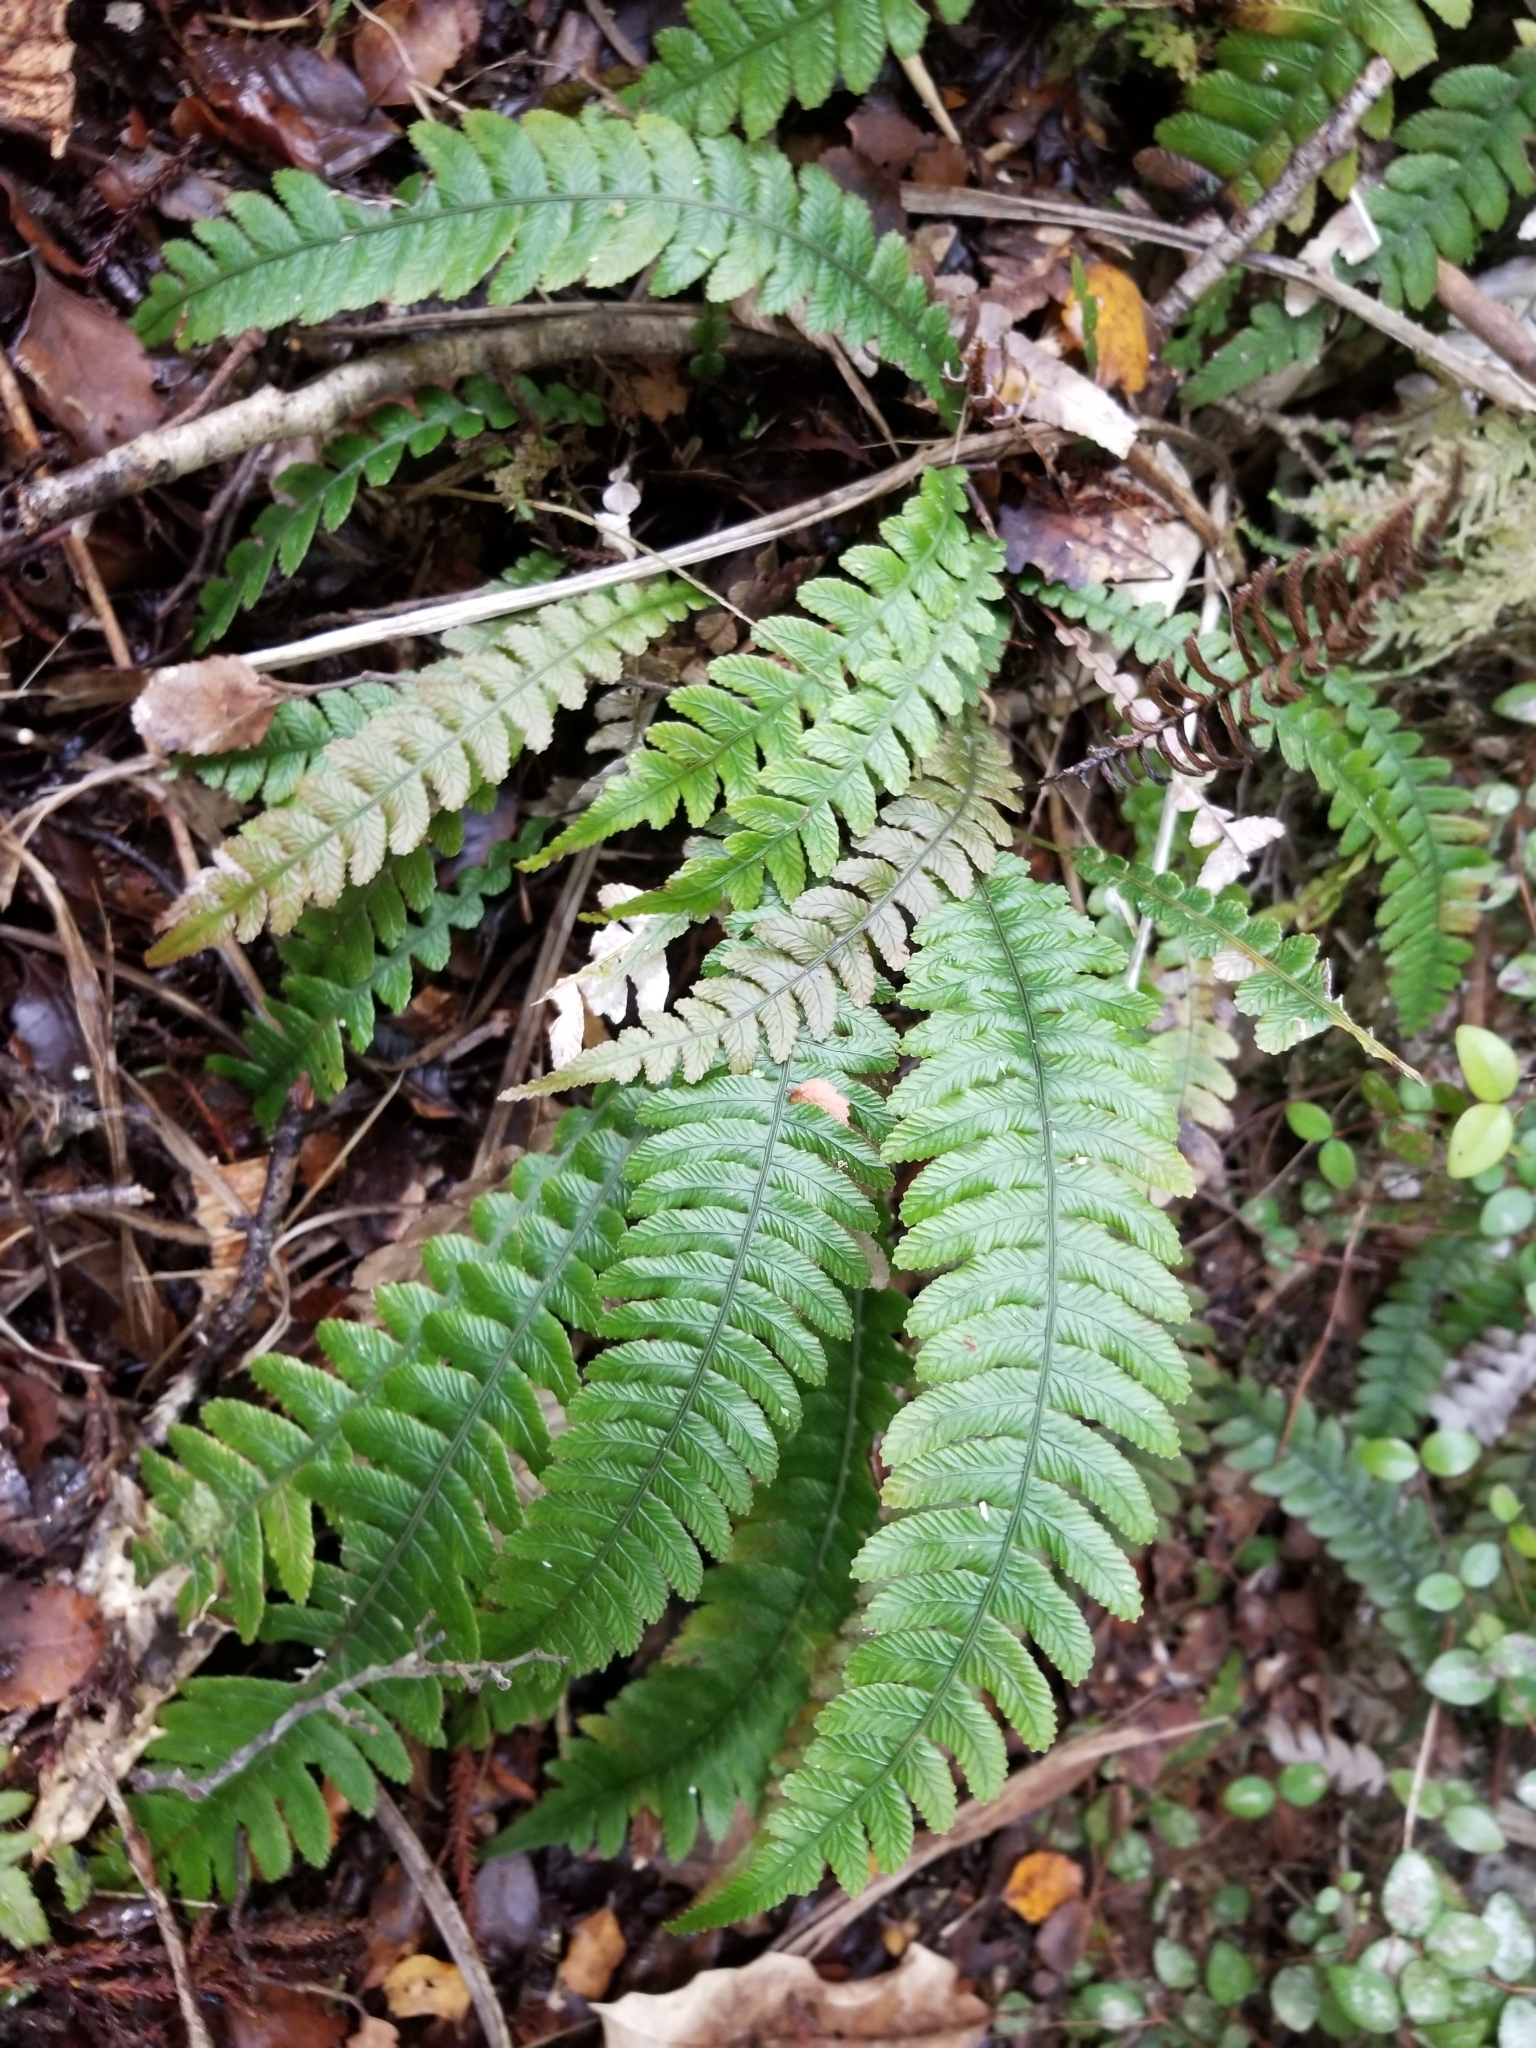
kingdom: Plantae
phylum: Tracheophyta
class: Polypodiopsida
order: Polypodiales
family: Blechnaceae
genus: Austroblechnum
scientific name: Austroblechnum lanceolatum
